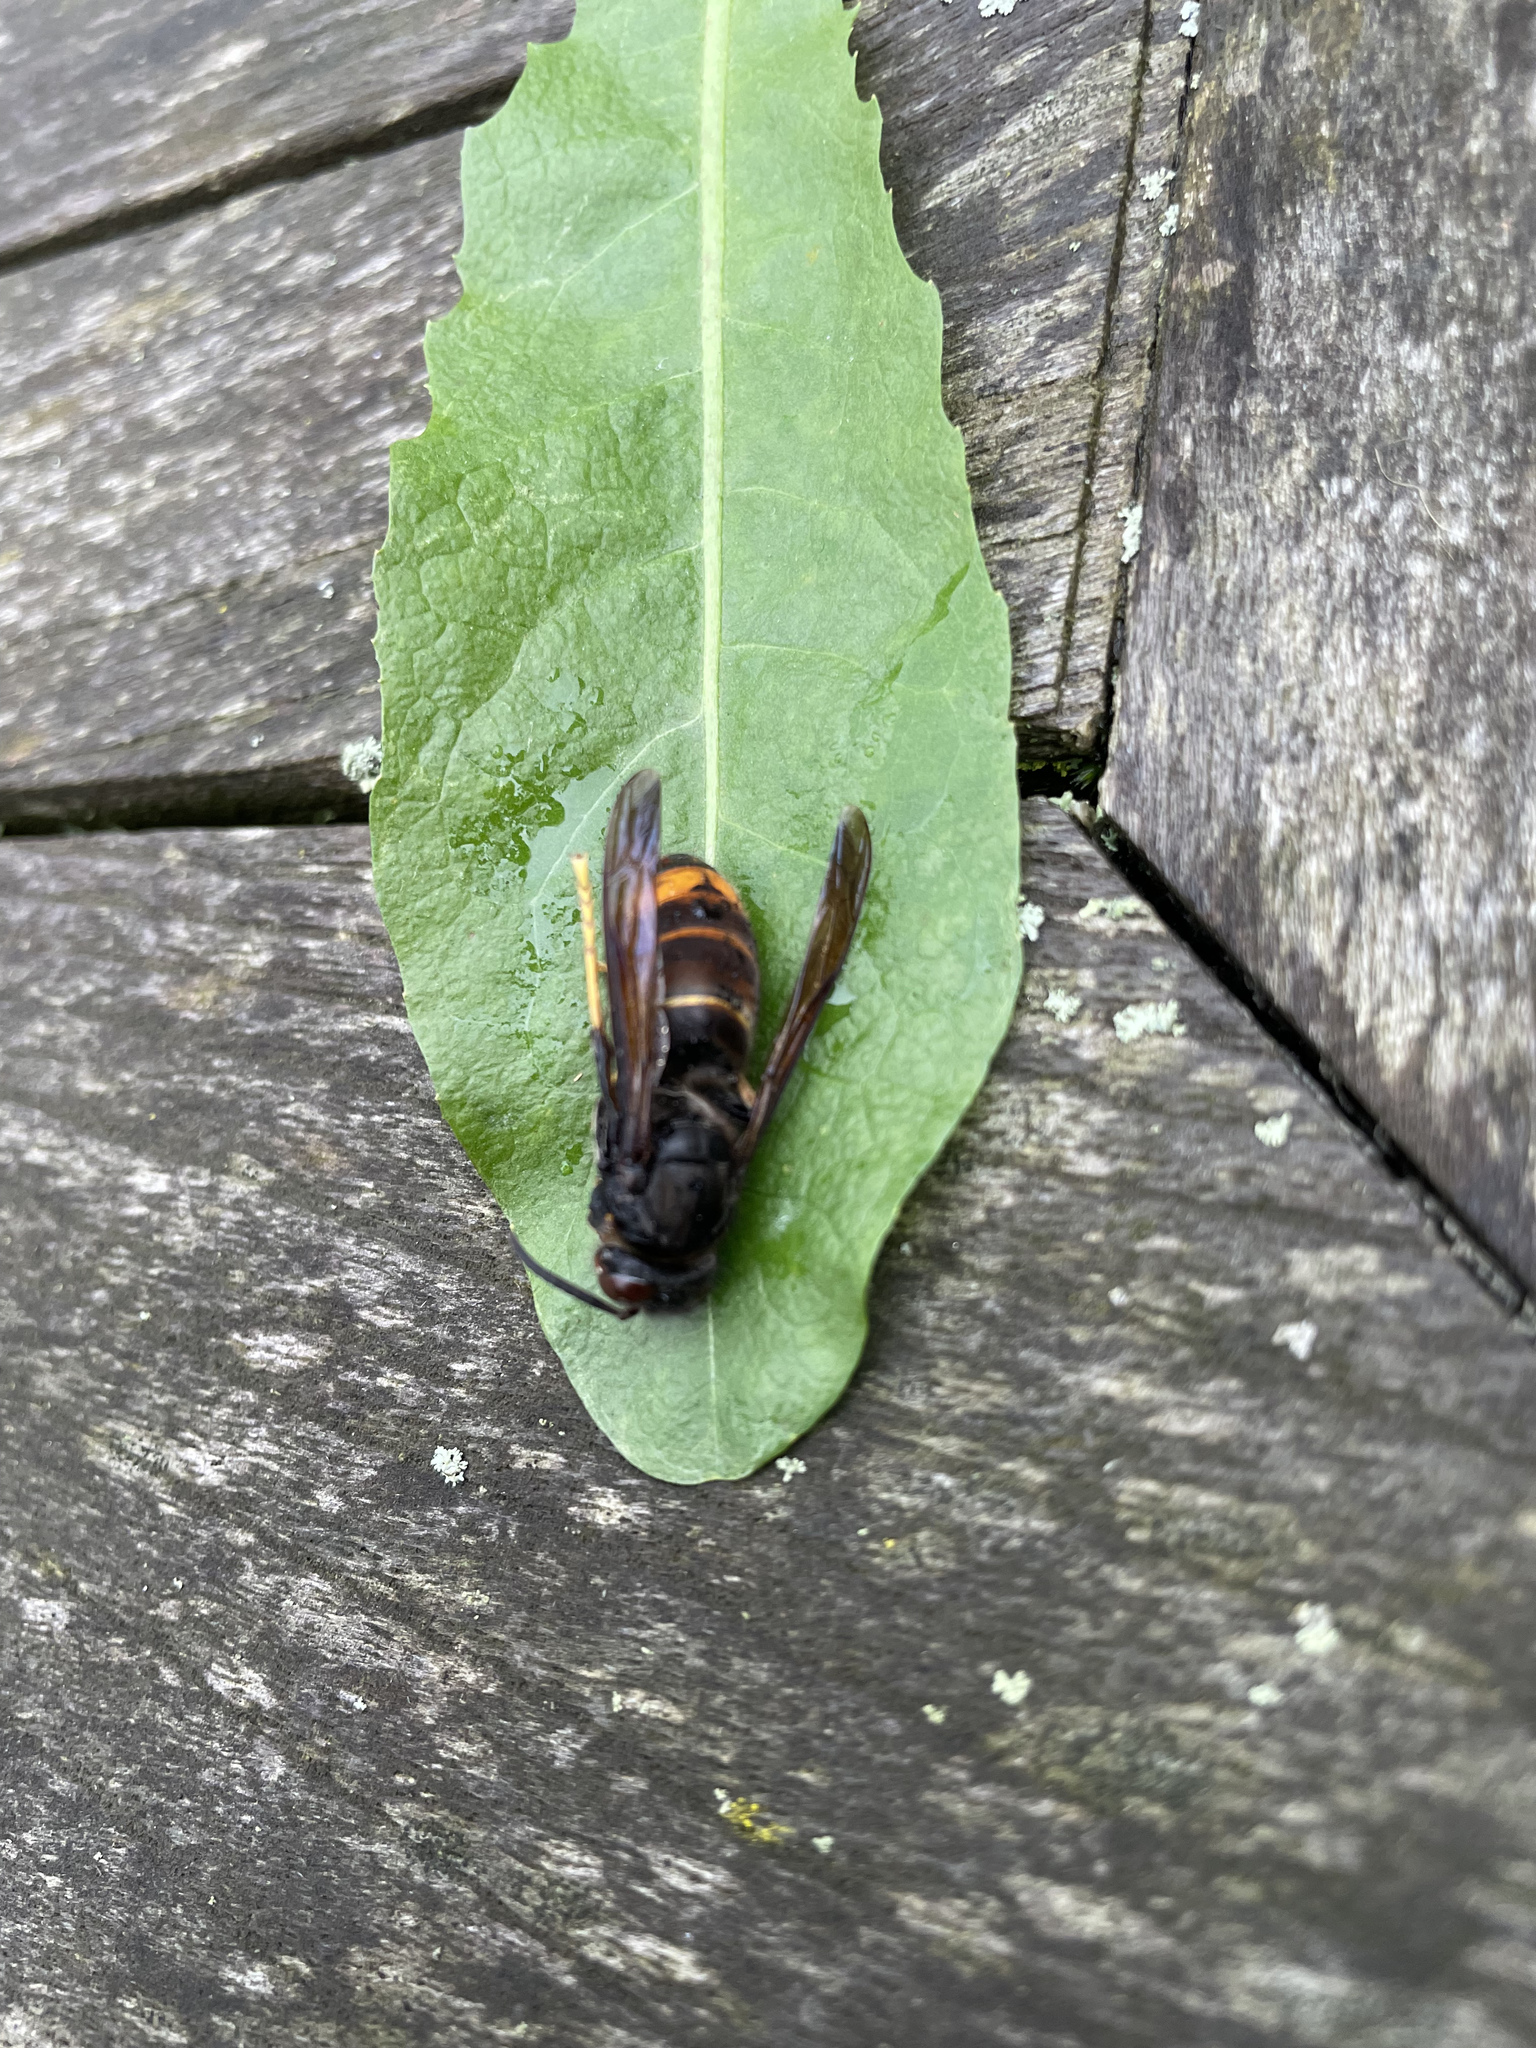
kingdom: Animalia
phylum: Arthropoda
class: Insecta
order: Hymenoptera
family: Vespidae
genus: Vespa
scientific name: Vespa velutina
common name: Asian hornet
